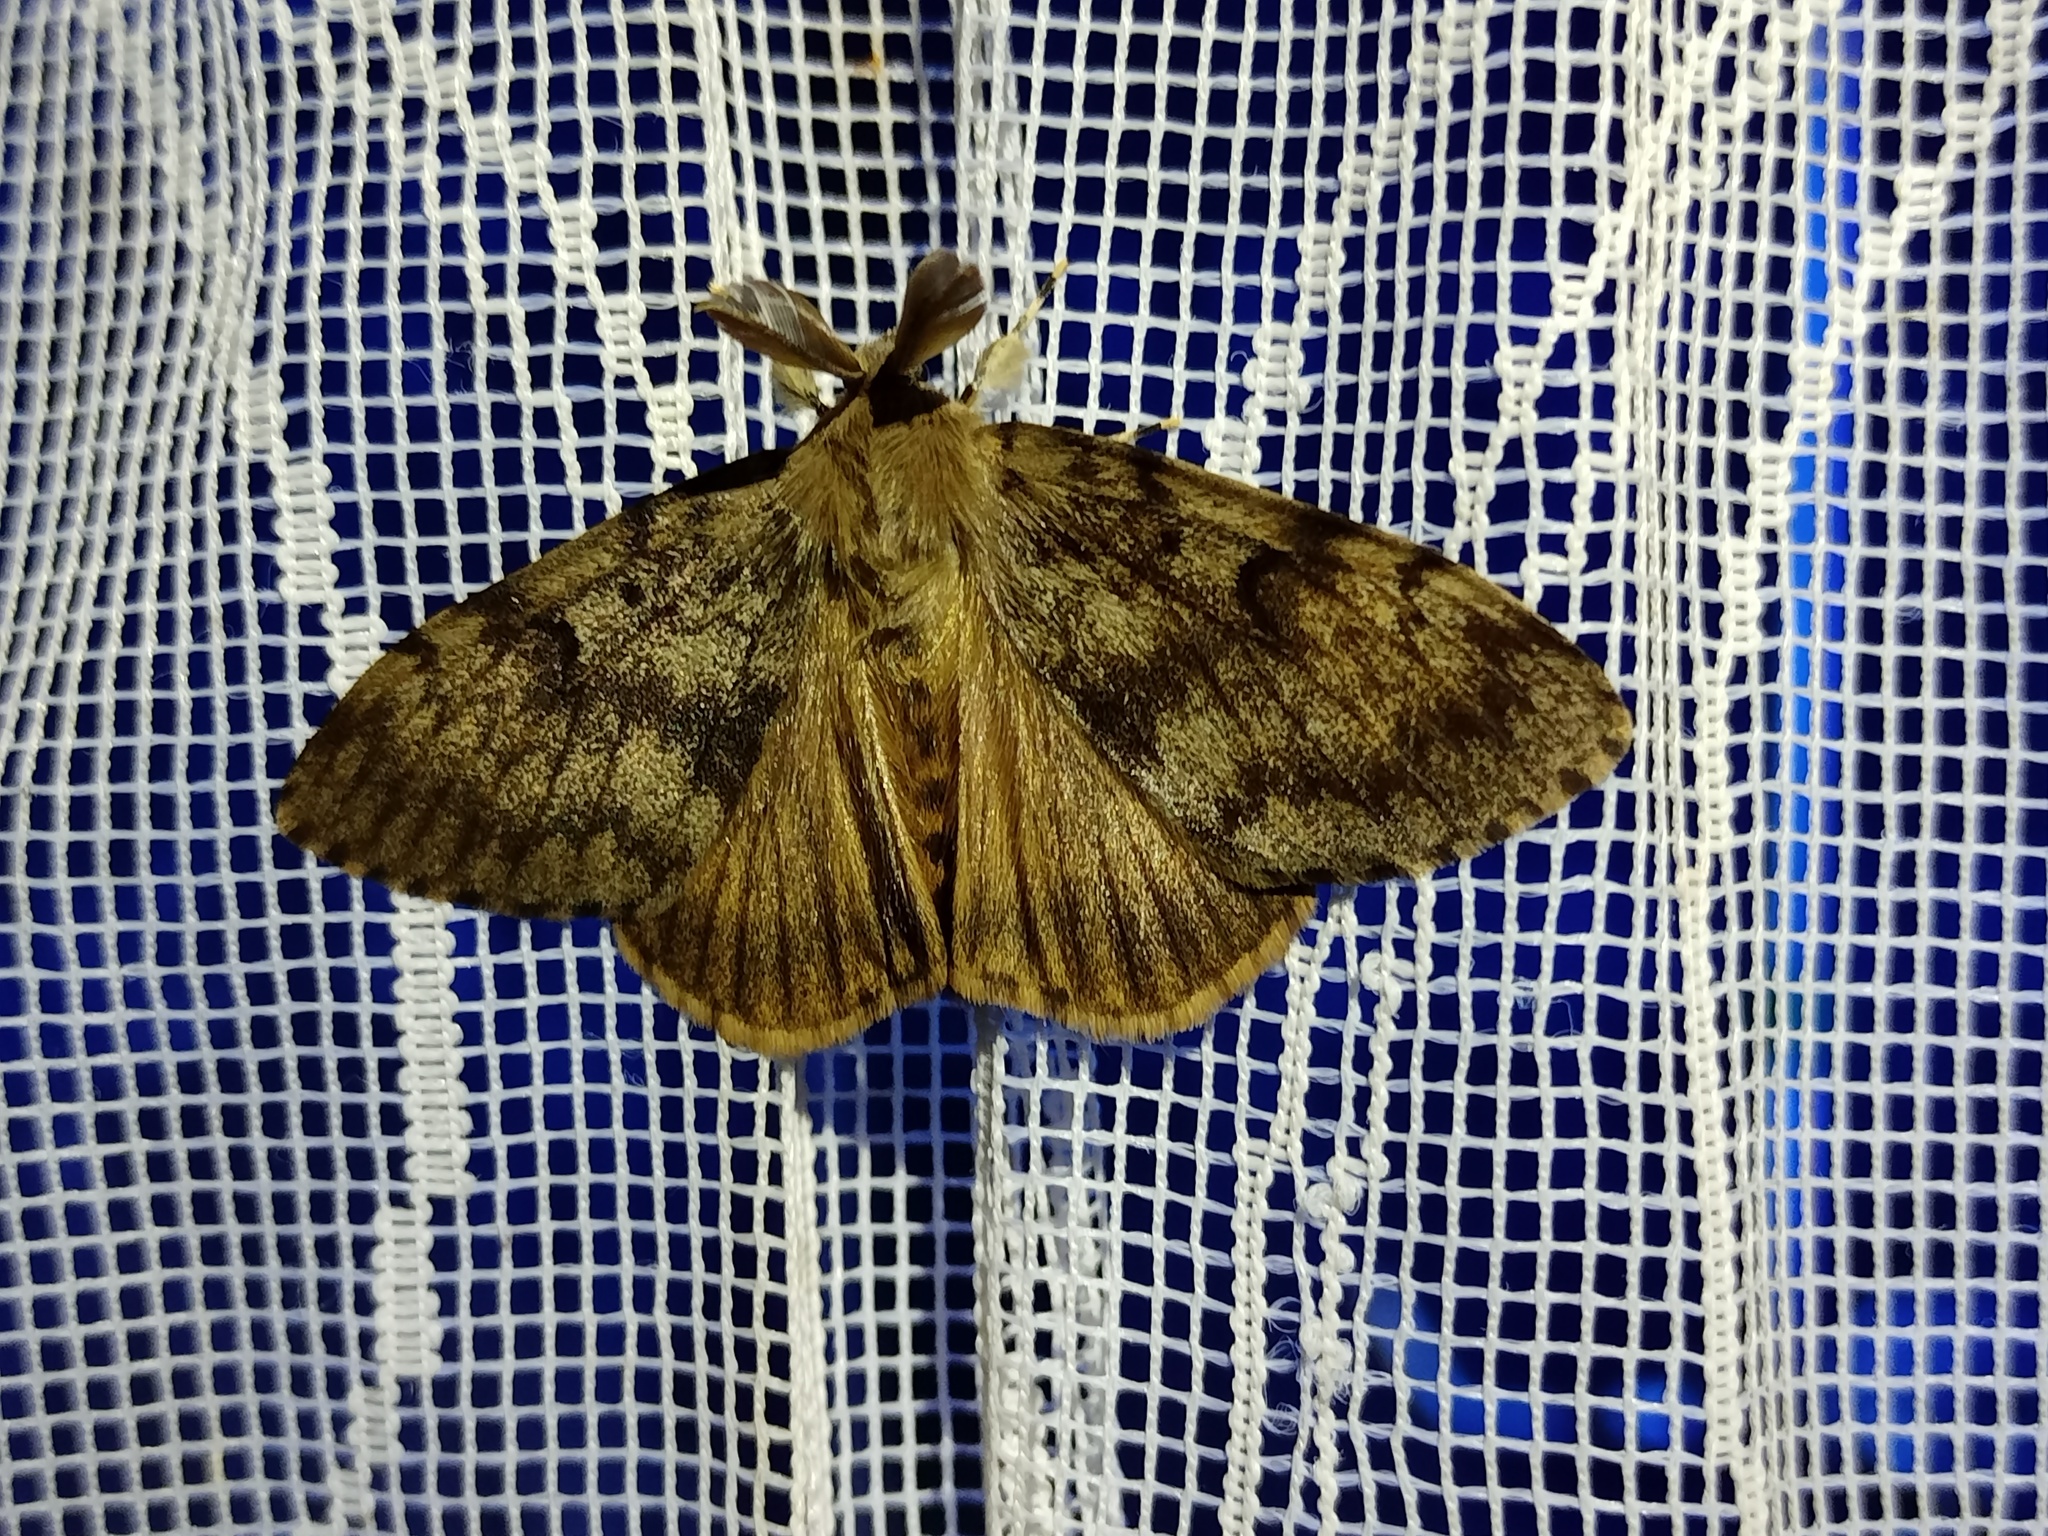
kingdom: Animalia
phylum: Arthropoda
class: Insecta
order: Lepidoptera
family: Erebidae
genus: Lymantria
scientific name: Lymantria dispar
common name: Gypsy moth
